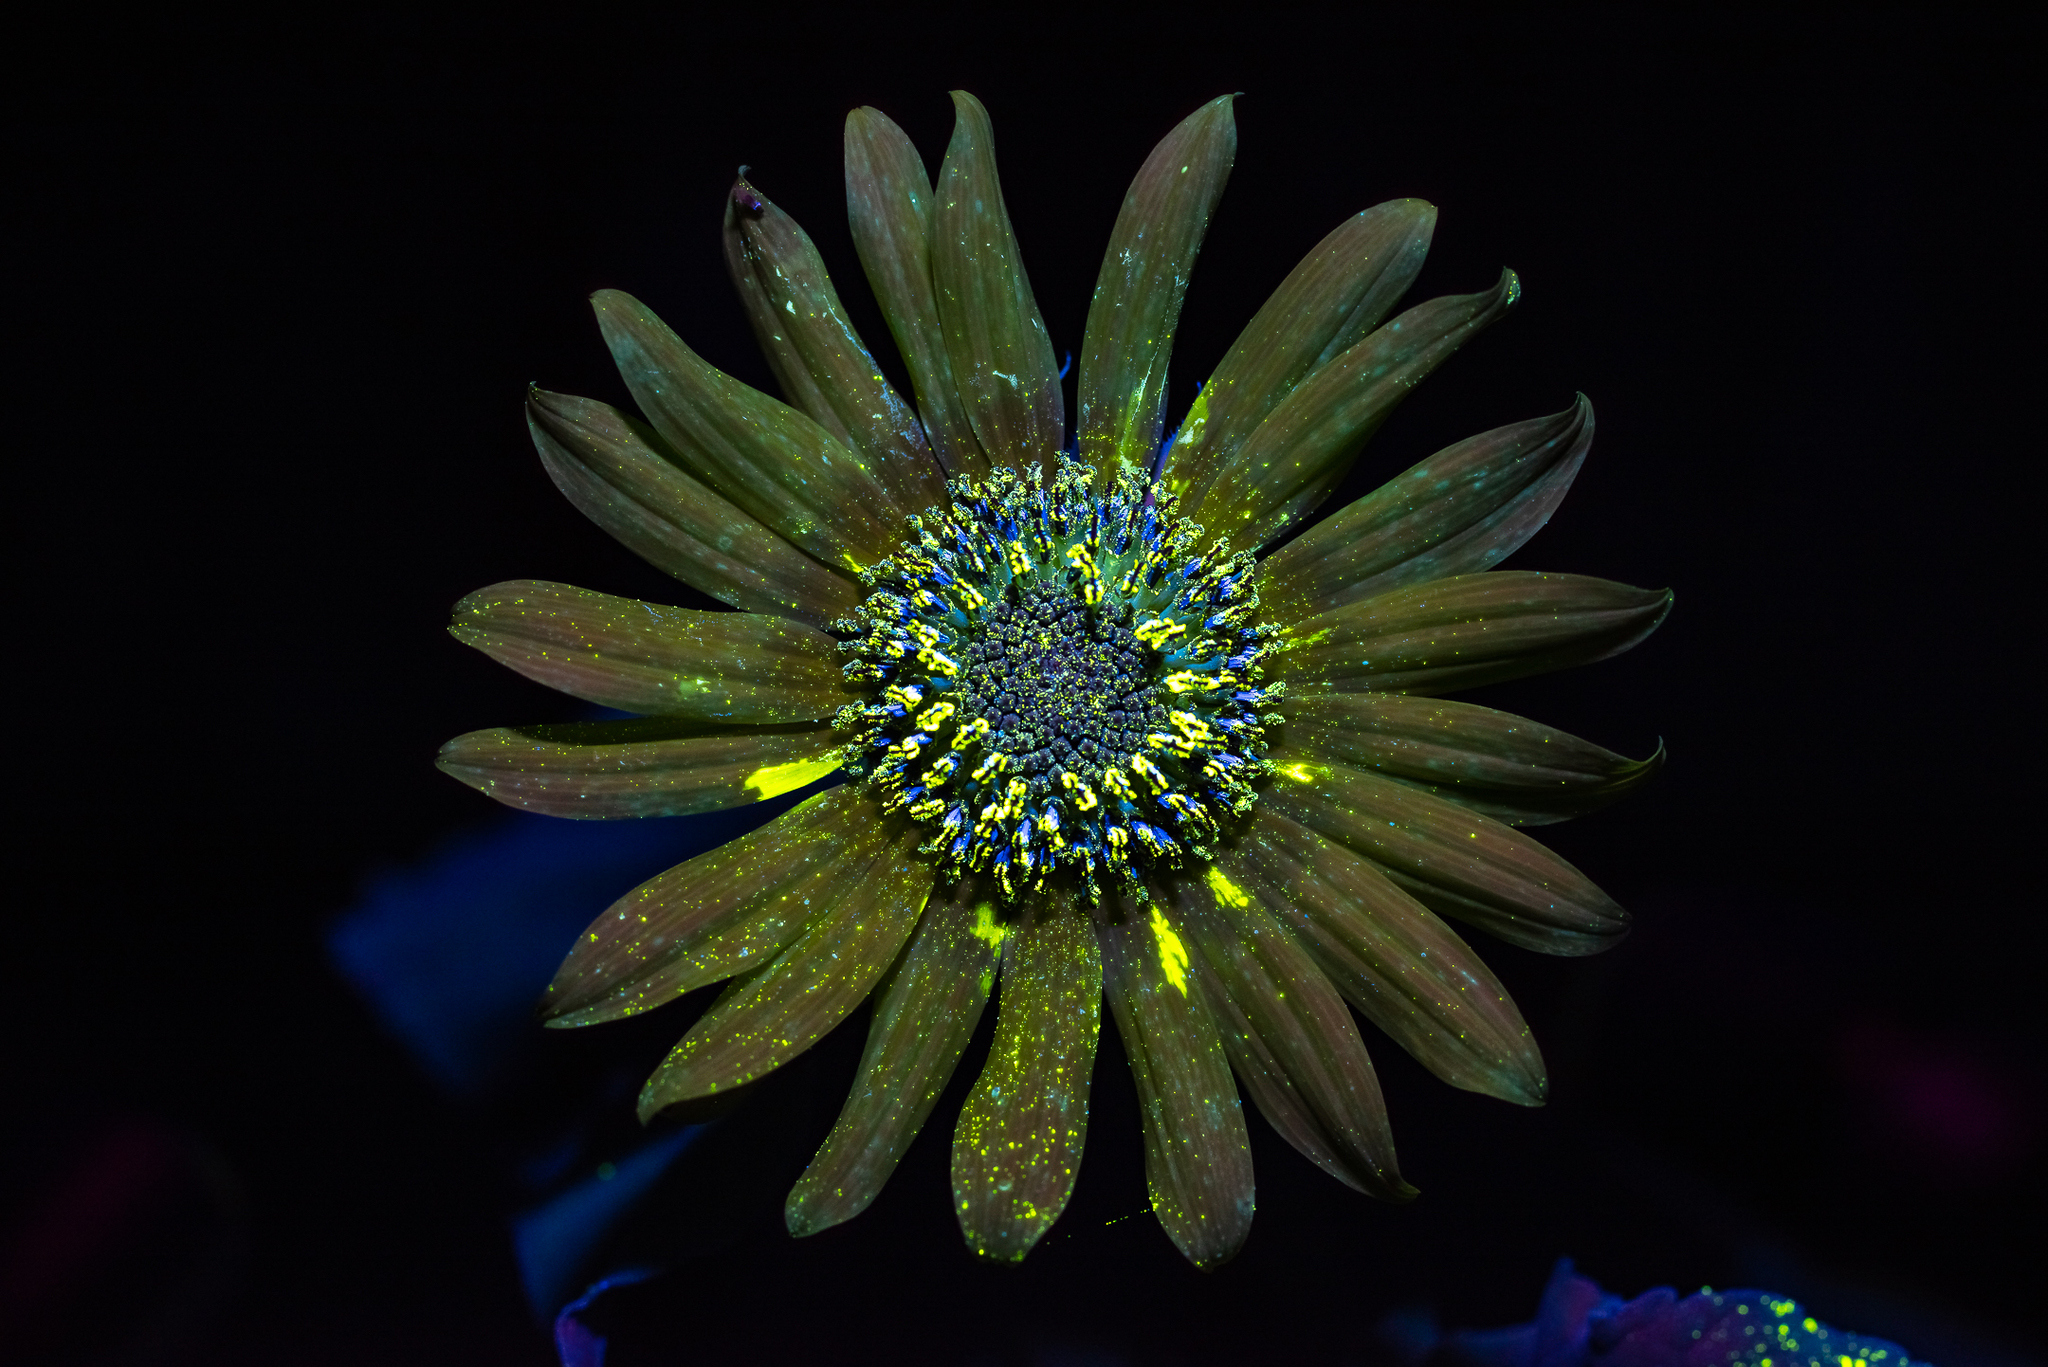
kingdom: Plantae
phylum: Tracheophyta
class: Magnoliopsida
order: Asterales
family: Asteraceae
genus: Helianthus
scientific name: Helianthus annuus
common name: Sunflower
